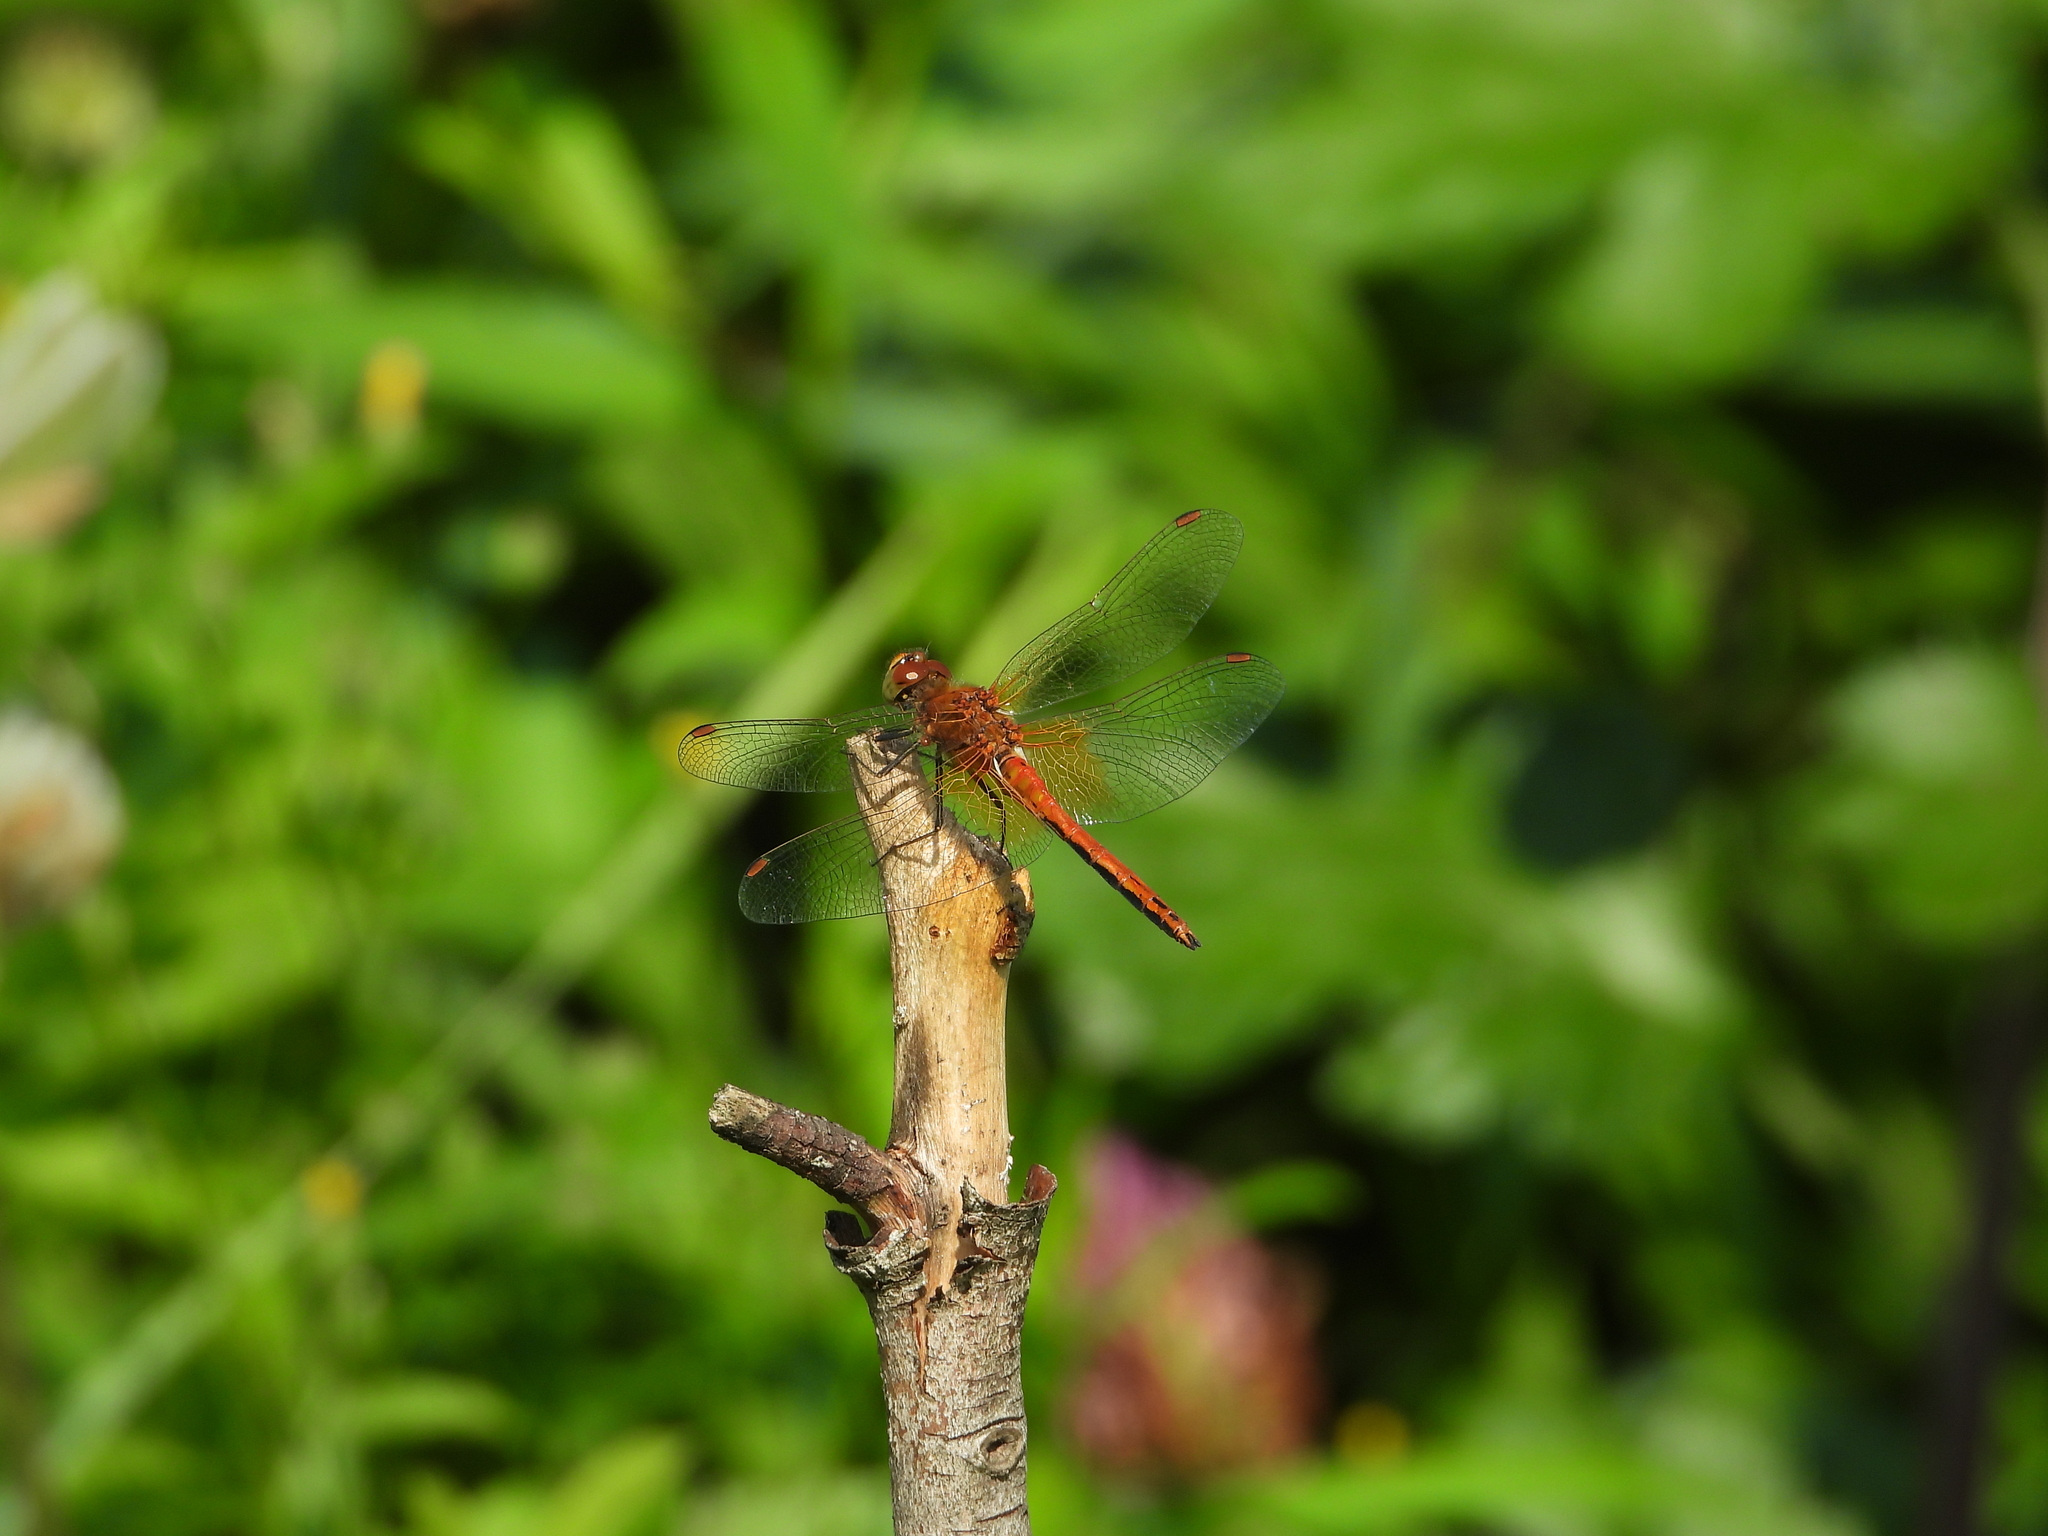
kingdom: Animalia
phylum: Arthropoda
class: Insecta
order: Odonata
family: Libellulidae
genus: Sympetrum
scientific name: Sympetrum flaveolum
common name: Yellow-winged darter
